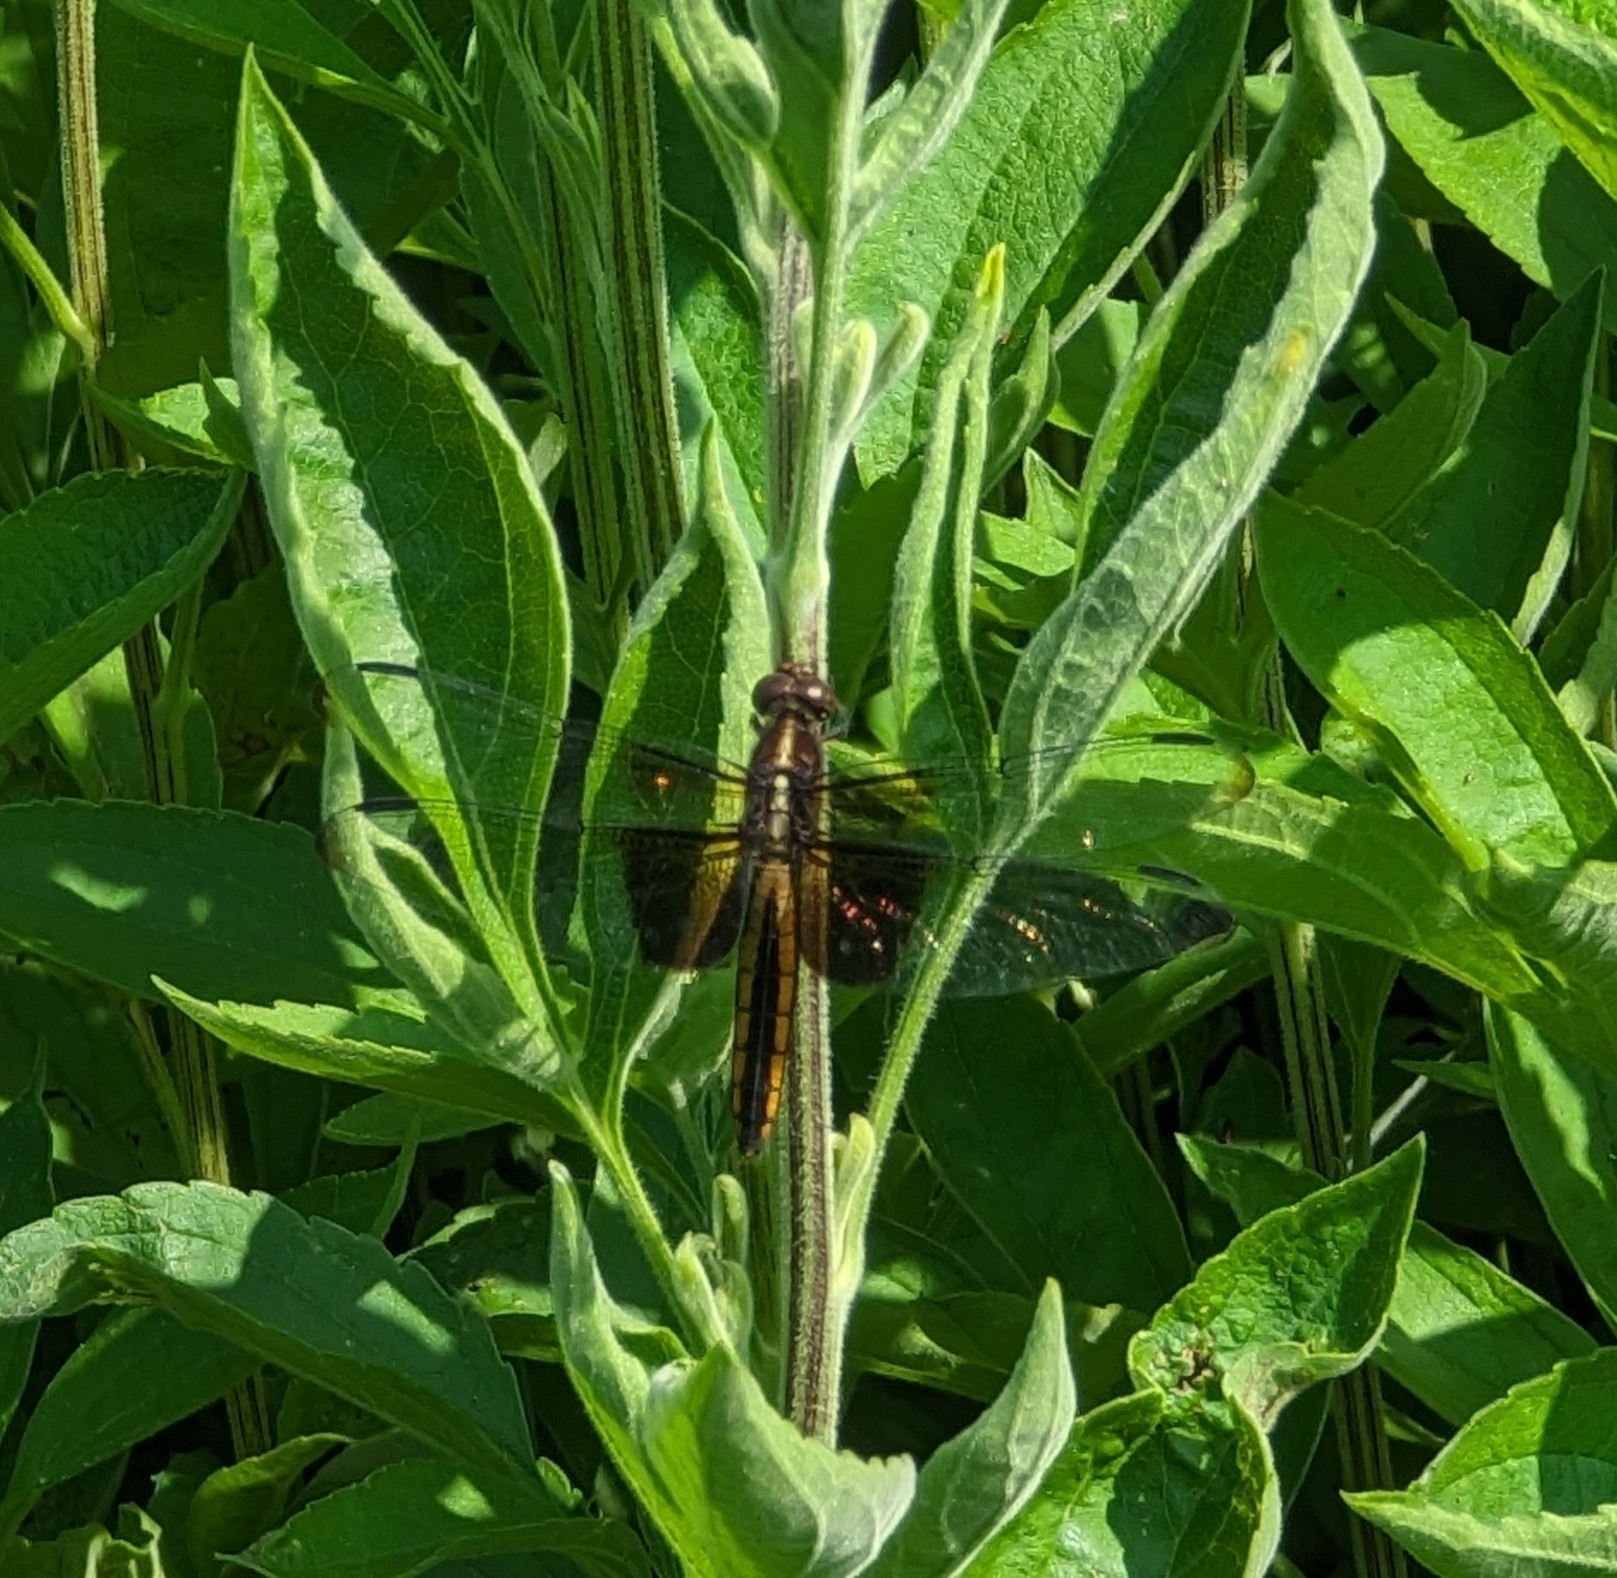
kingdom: Animalia
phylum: Arthropoda
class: Insecta
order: Odonata
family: Libellulidae
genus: Libellula
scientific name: Libellula luctuosa
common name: Widow skimmer
